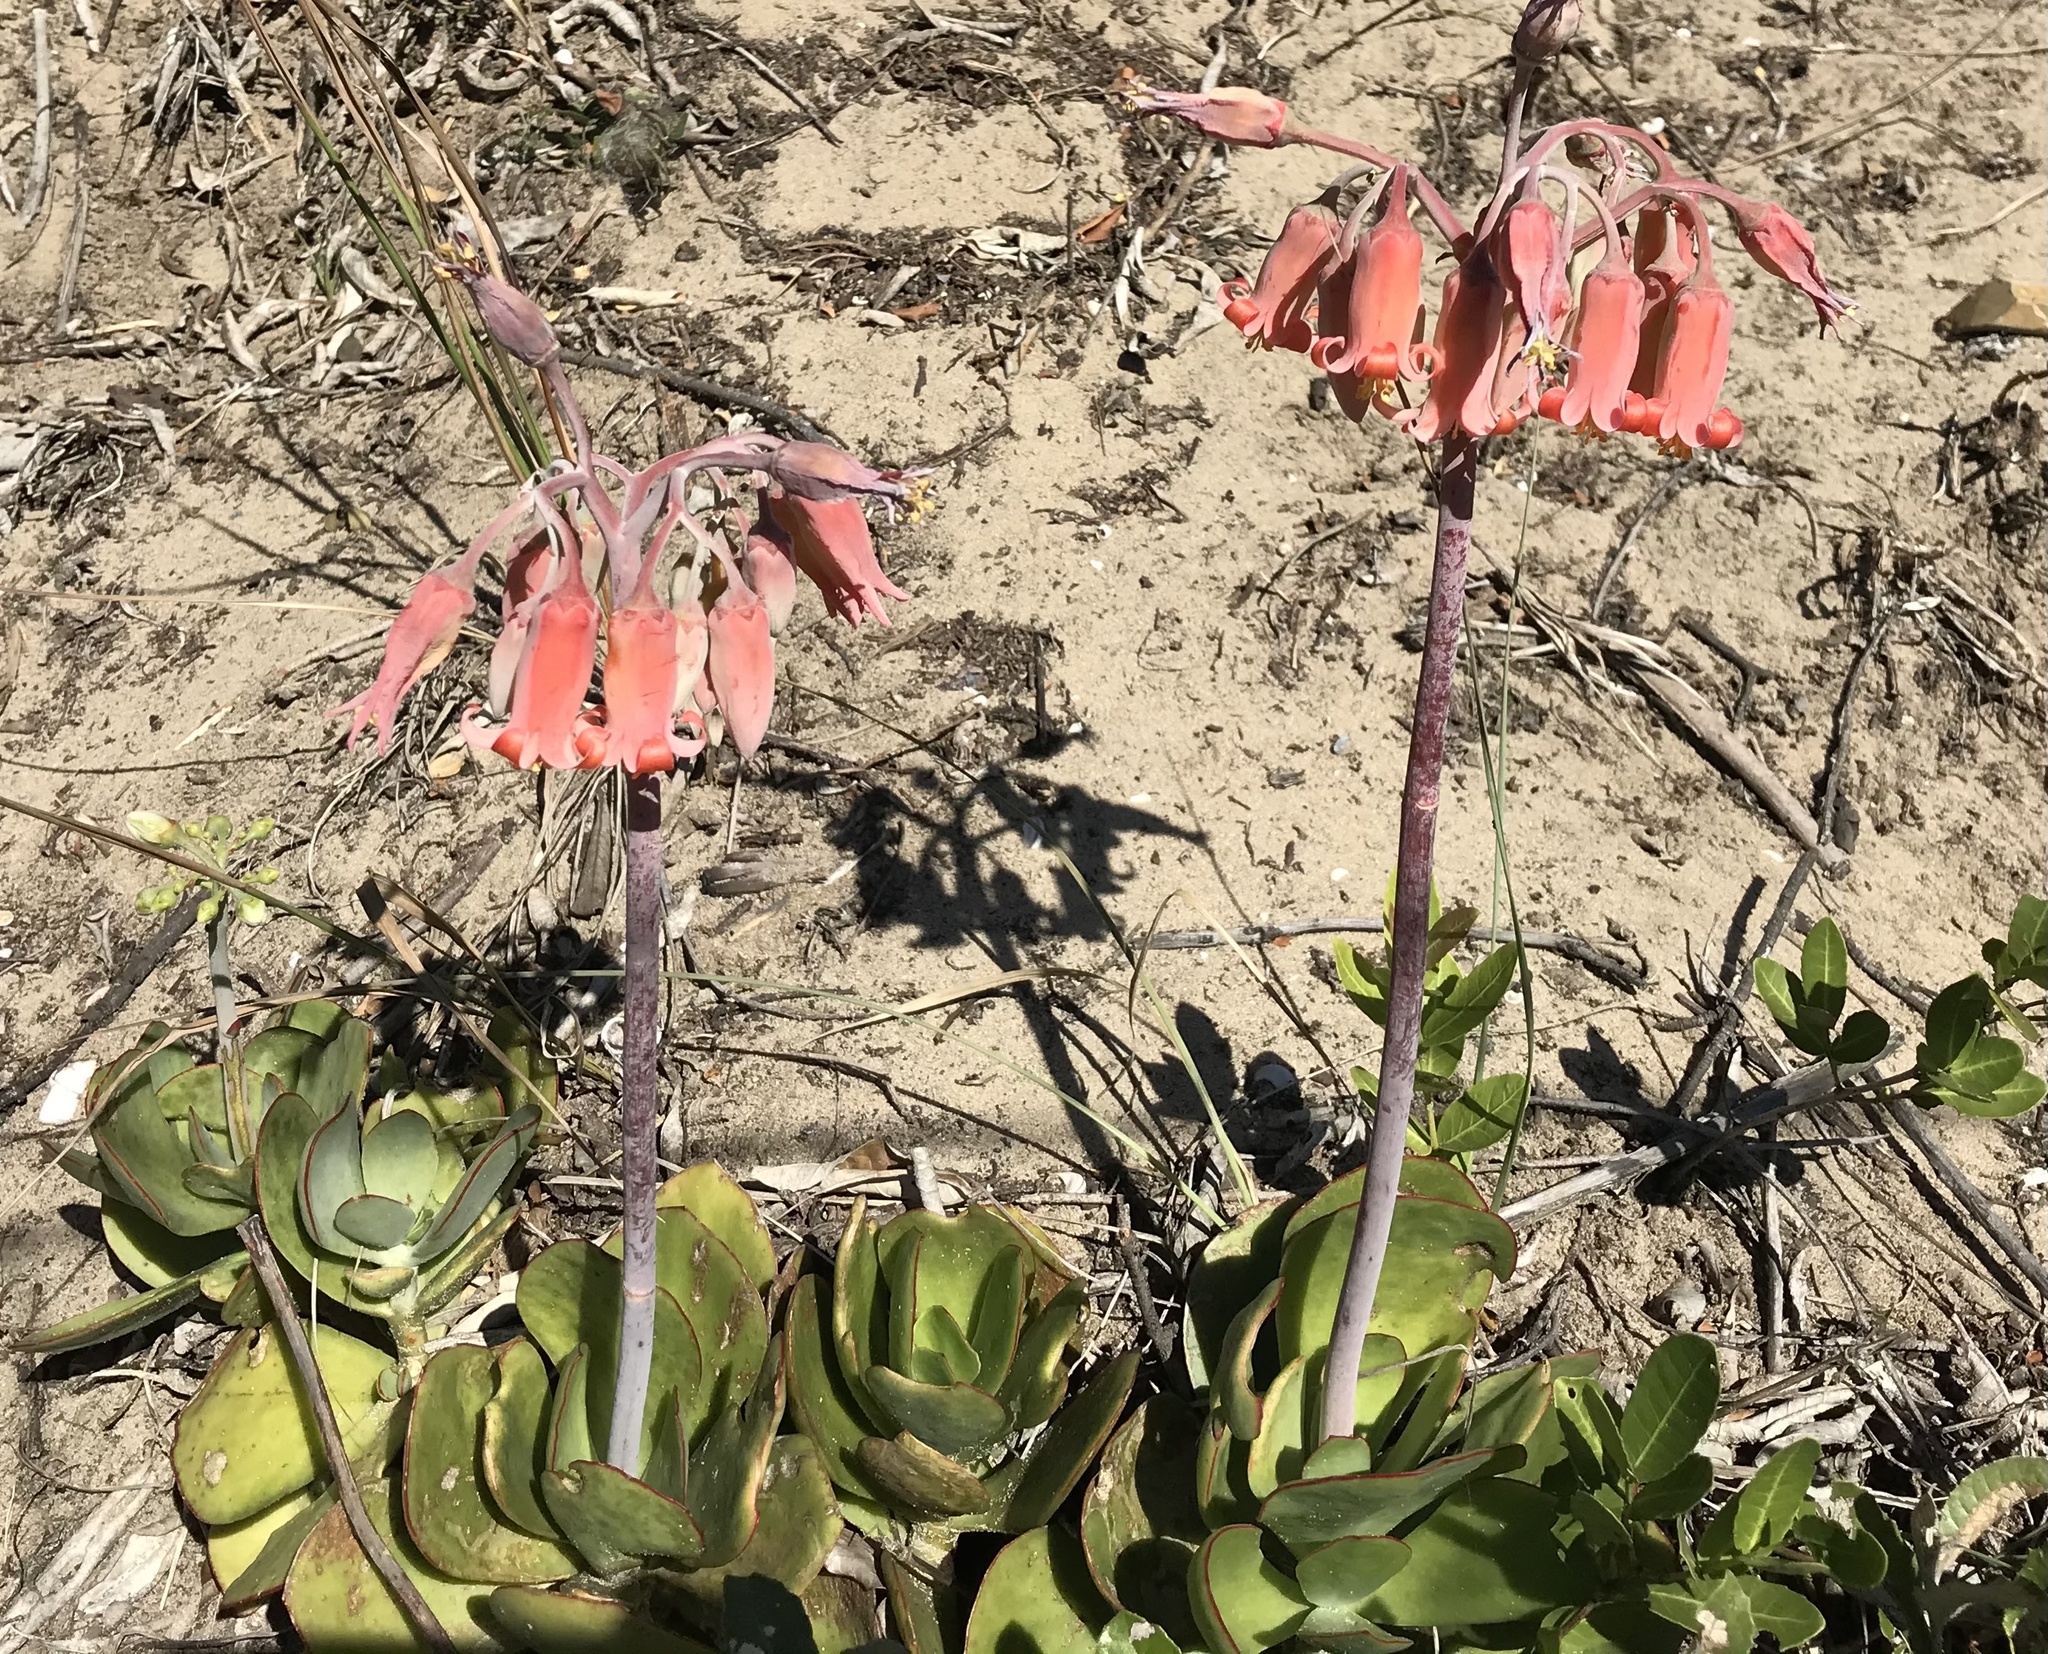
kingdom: Plantae
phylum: Tracheophyta
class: Magnoliopsida
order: Saxifragales
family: Crassulaceae
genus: Cotyledon
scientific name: Cotyledon orbiculata
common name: Pig's ear
